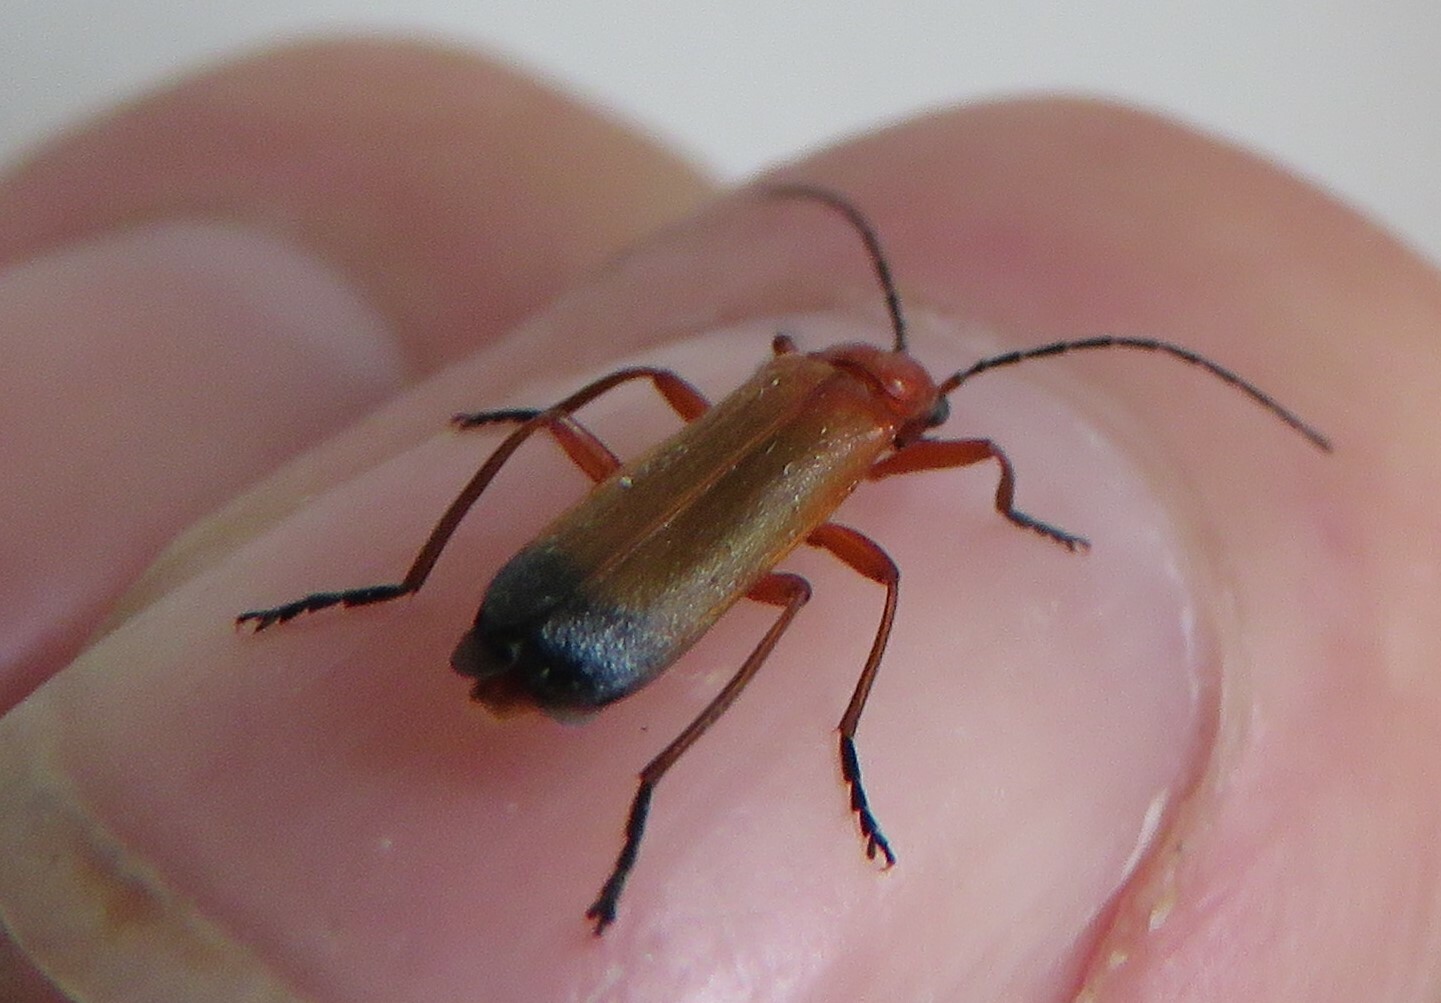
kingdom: Animalia
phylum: Arthropoda
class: Insecta
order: Coleoptera
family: Cantharidae
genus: Rhagonycha
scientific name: Rhagonycha fulva
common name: Common red soldier beetle
